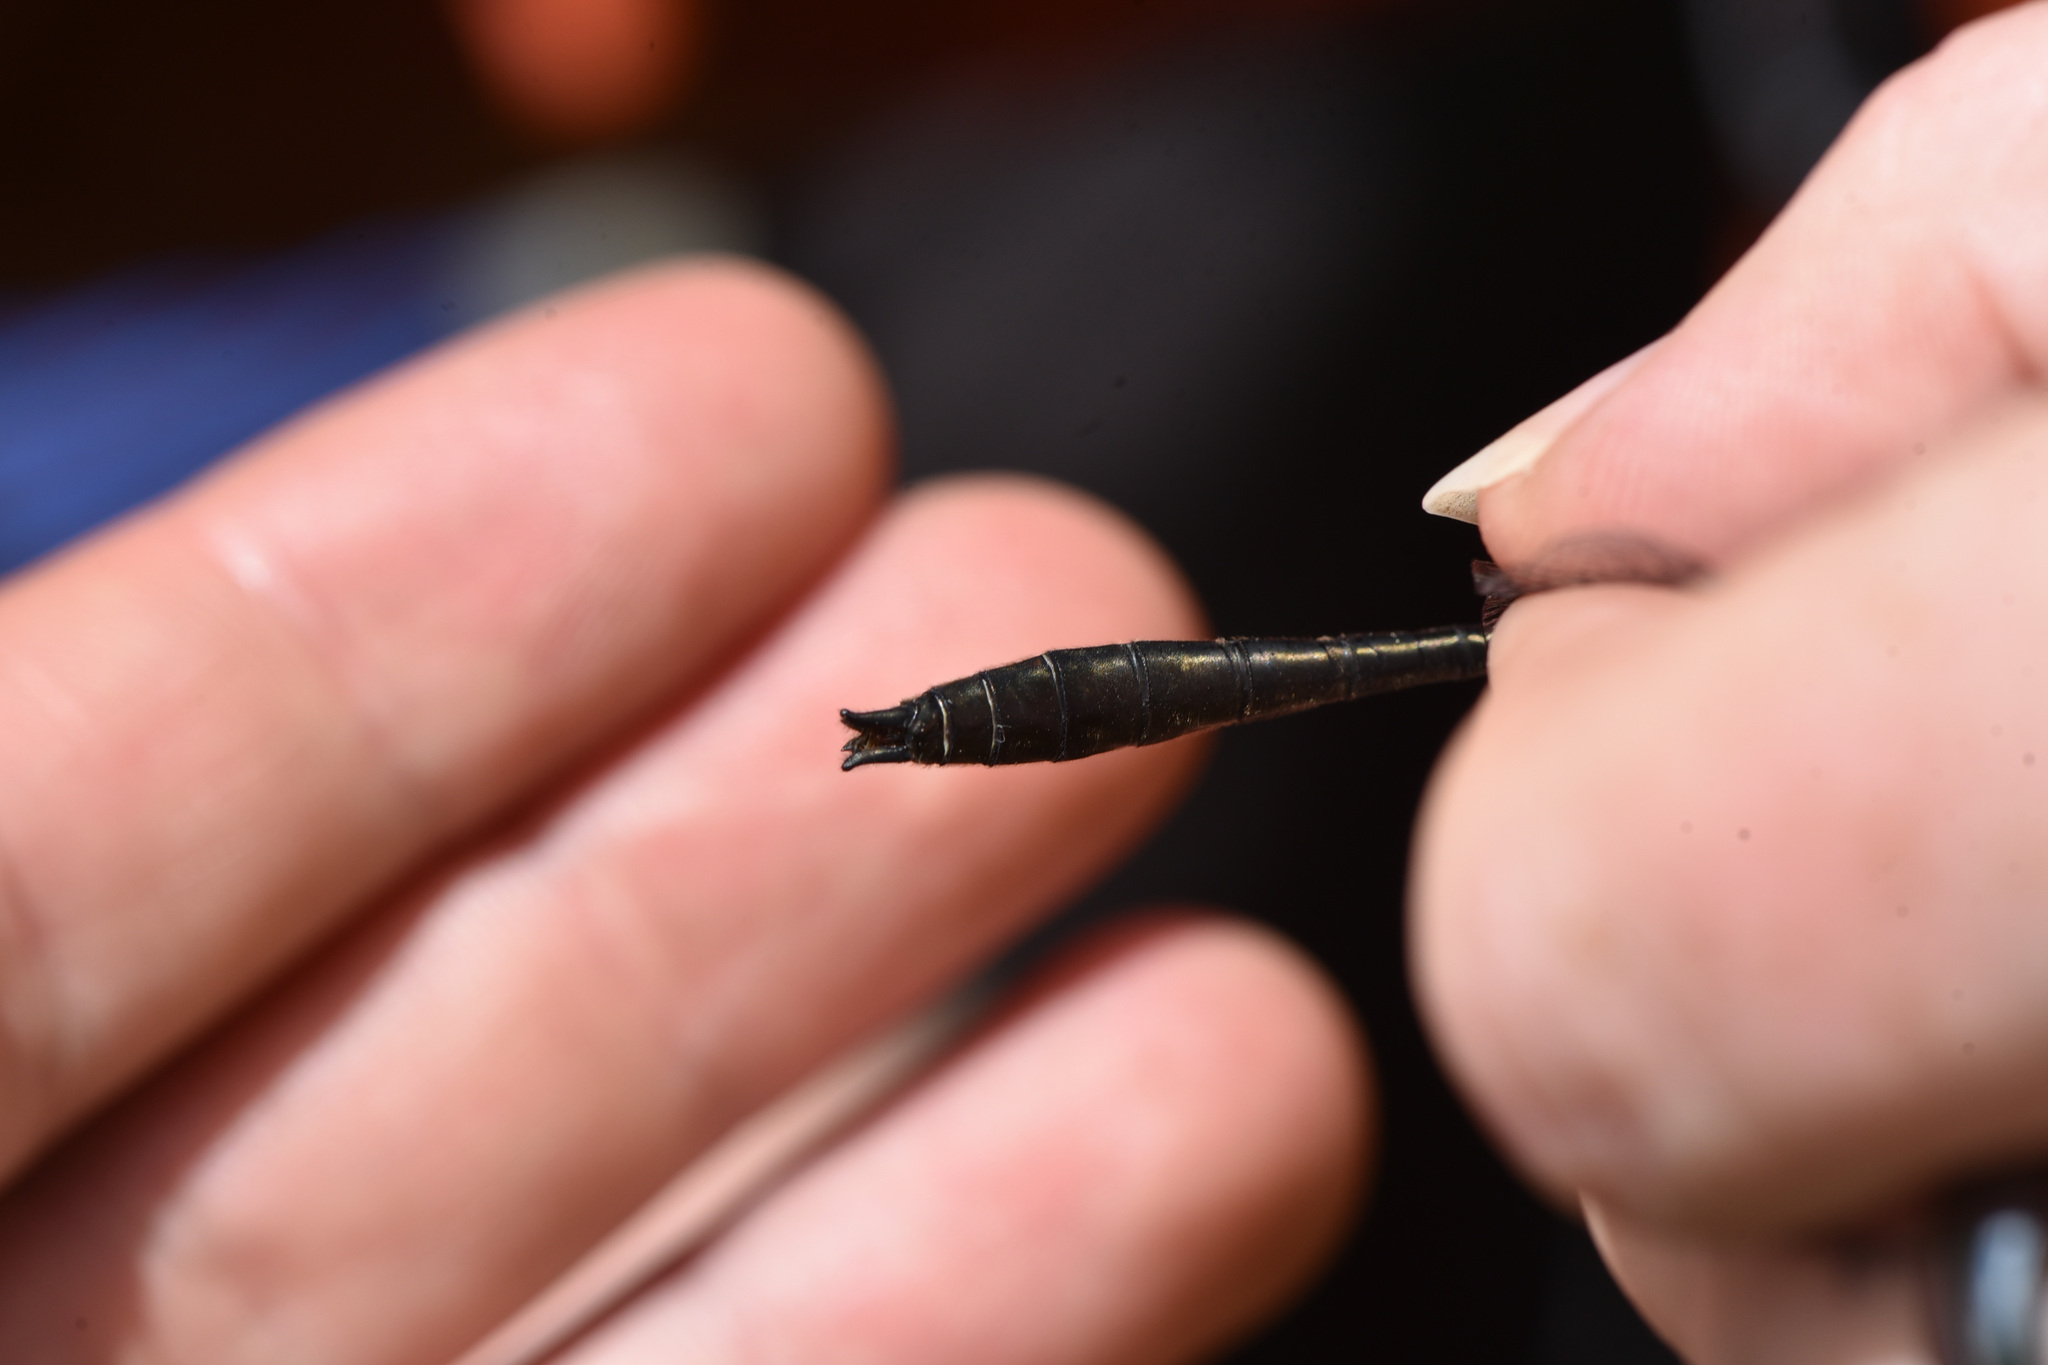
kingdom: Animalia
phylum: Arthropoda
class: Insecta
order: Odonata
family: Corduliidae
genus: Cordulia
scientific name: Cordulia shurtleffii
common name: American emerald
